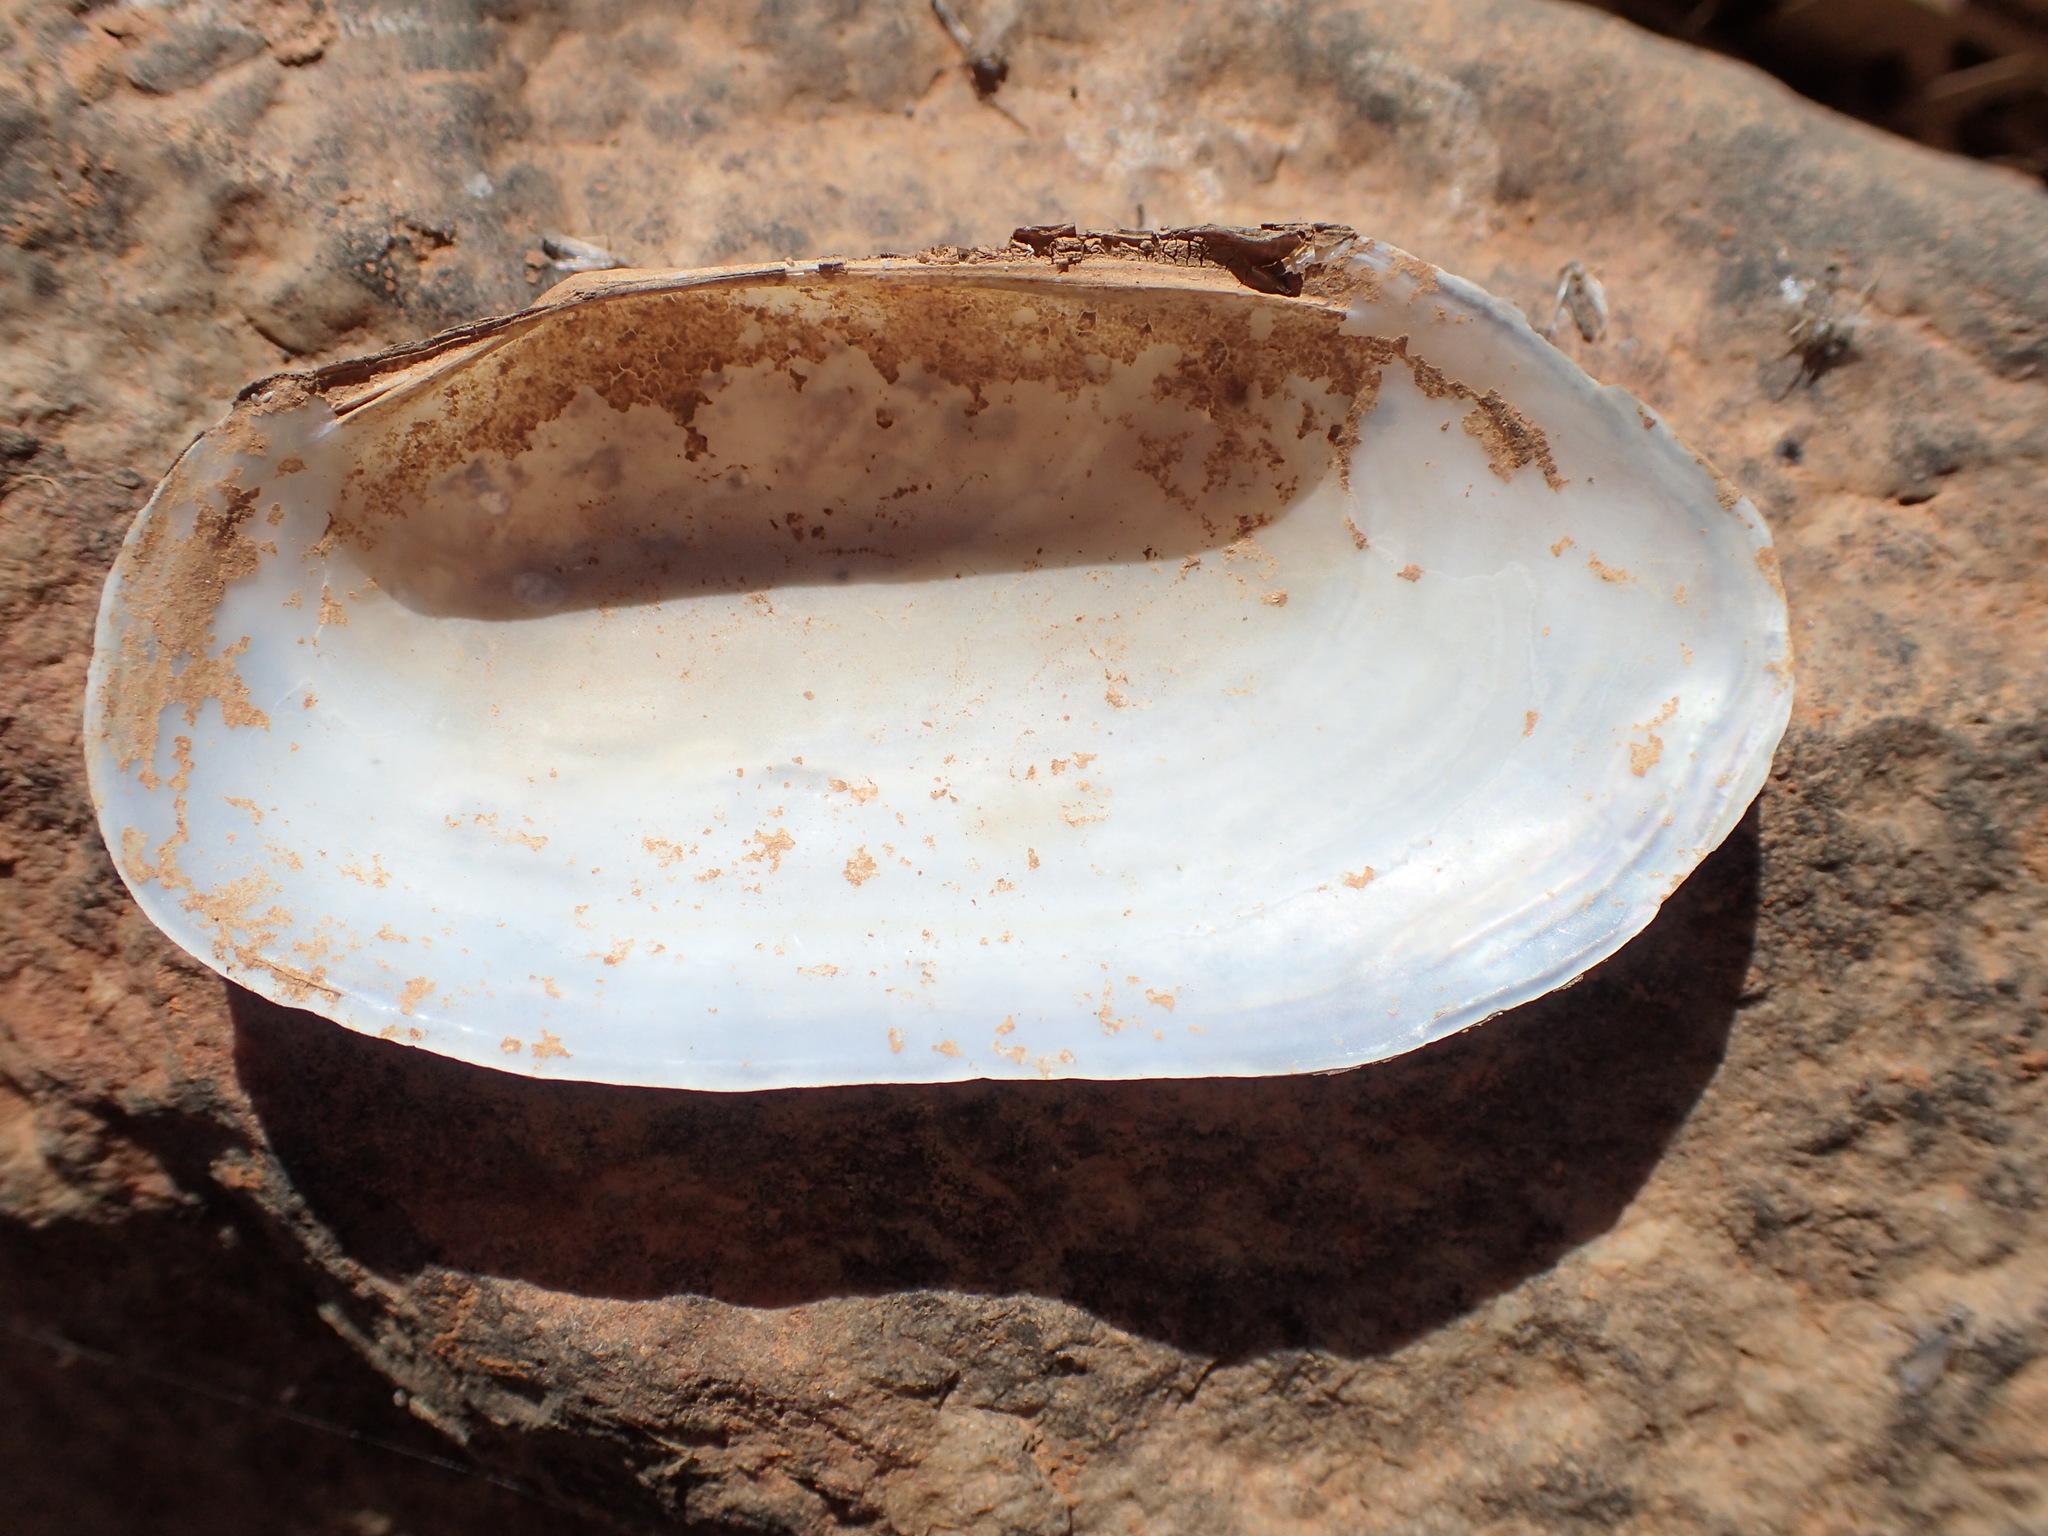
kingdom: Animalia
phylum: Mollusca
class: Bivalvia
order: Unionida
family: Hyriidae
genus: Velesunio
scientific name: Velesunio wilsonii
